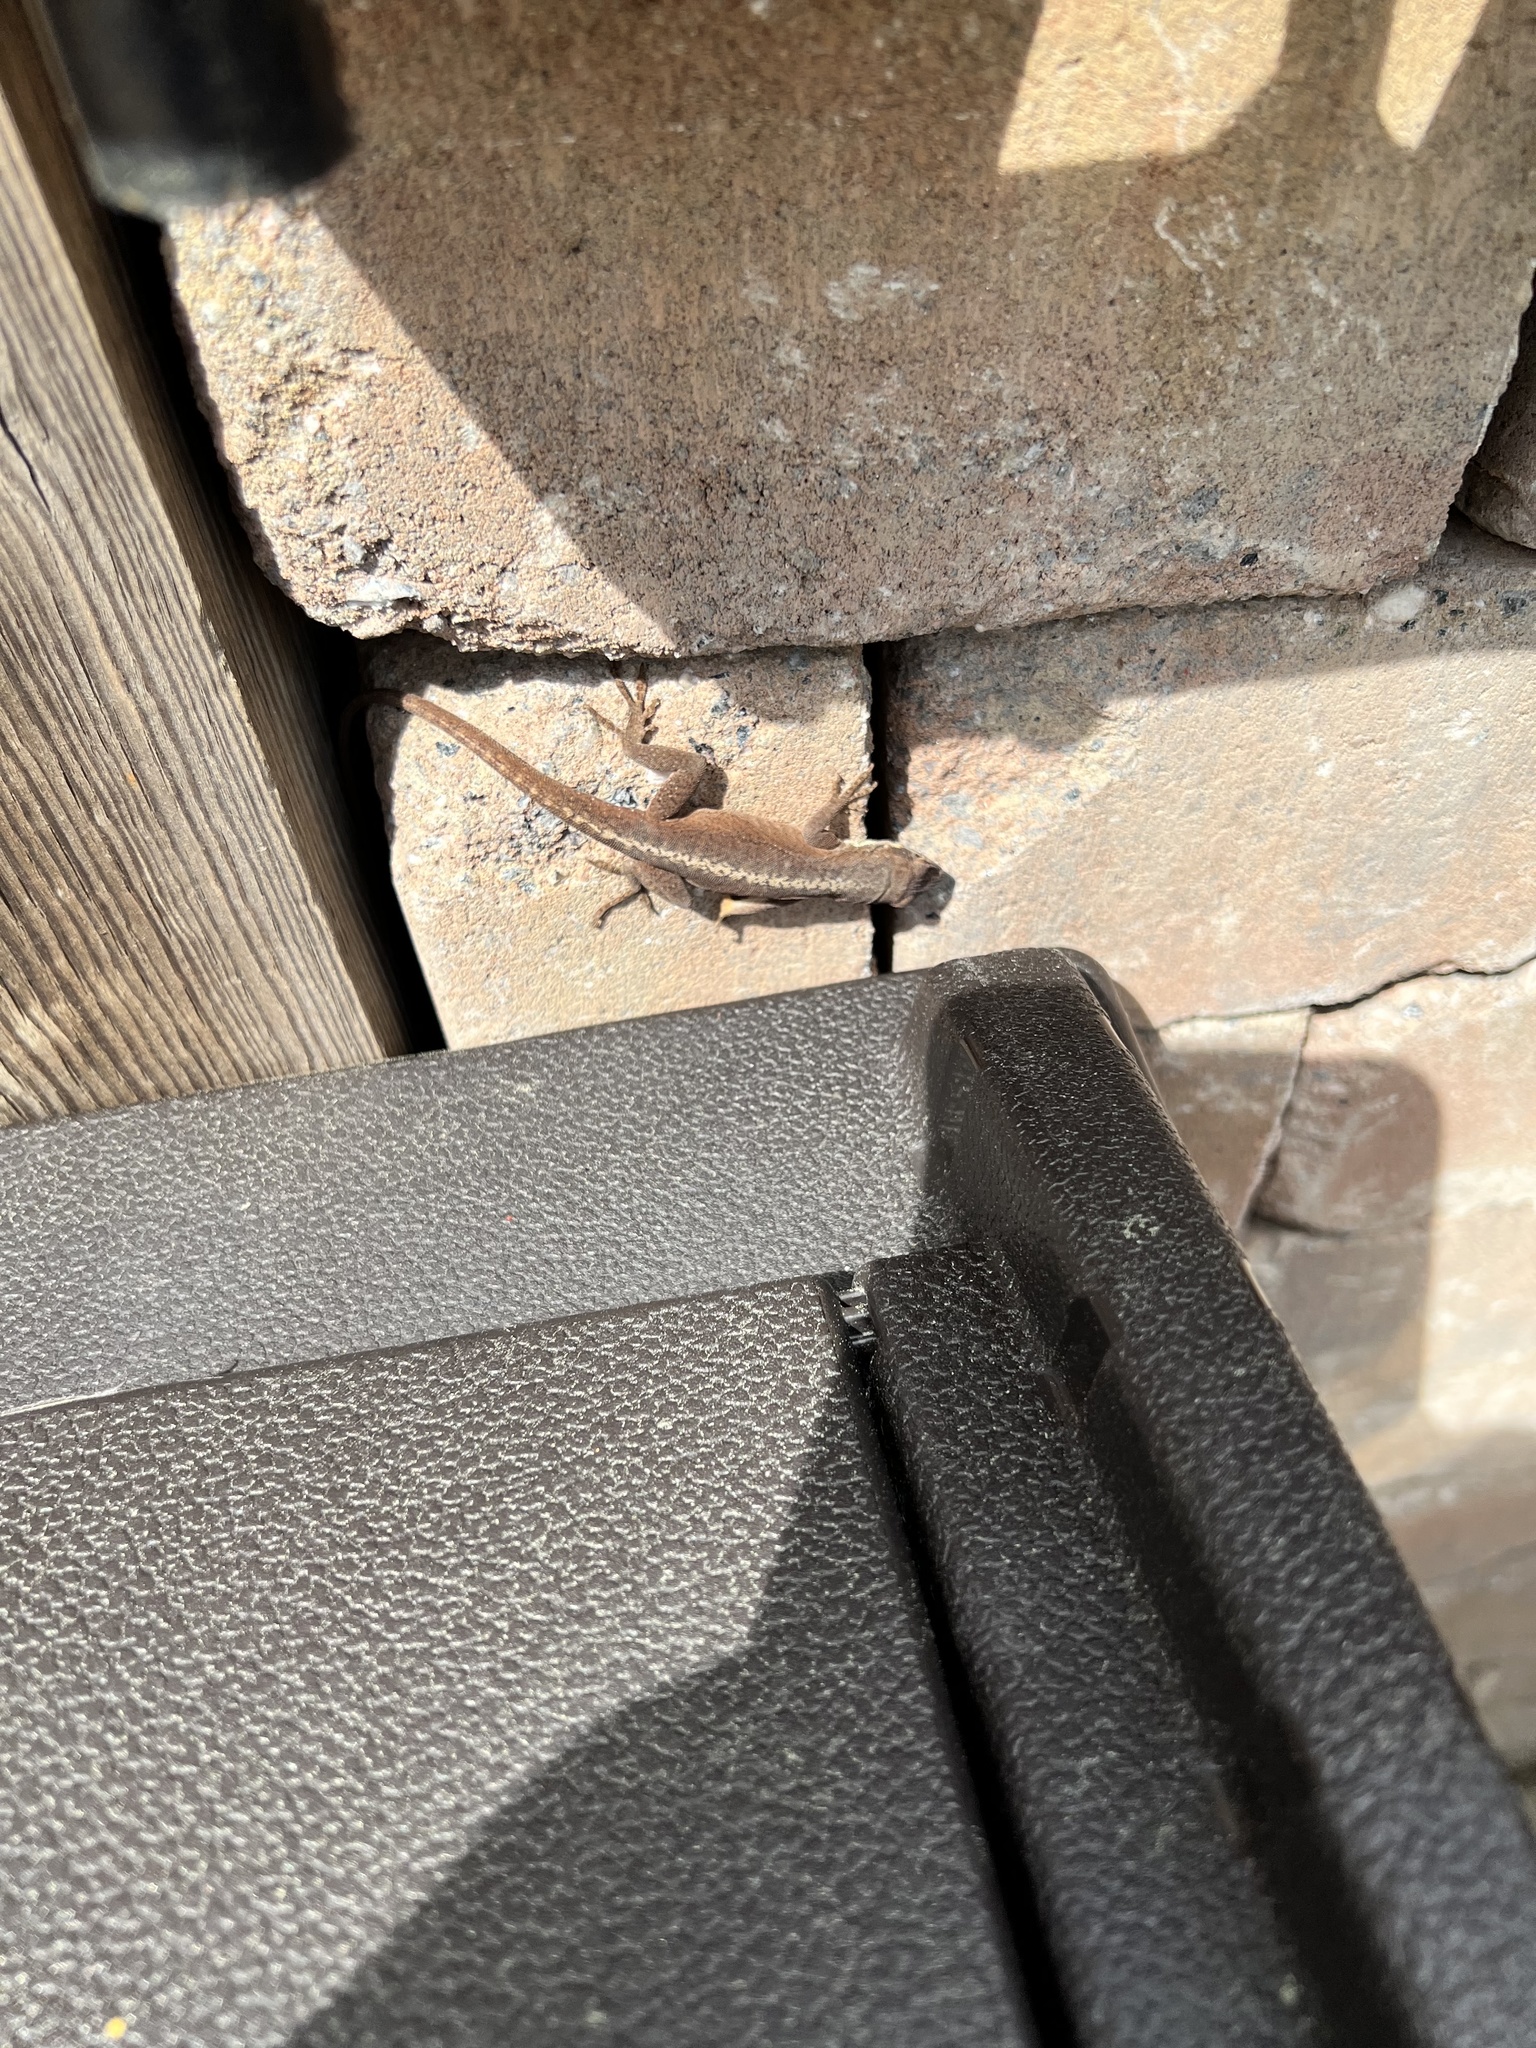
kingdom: Animalia
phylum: Chordata
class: Squamata
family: Dactyloidae
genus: Anolis
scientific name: Anolis carolinensis
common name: Green anole
